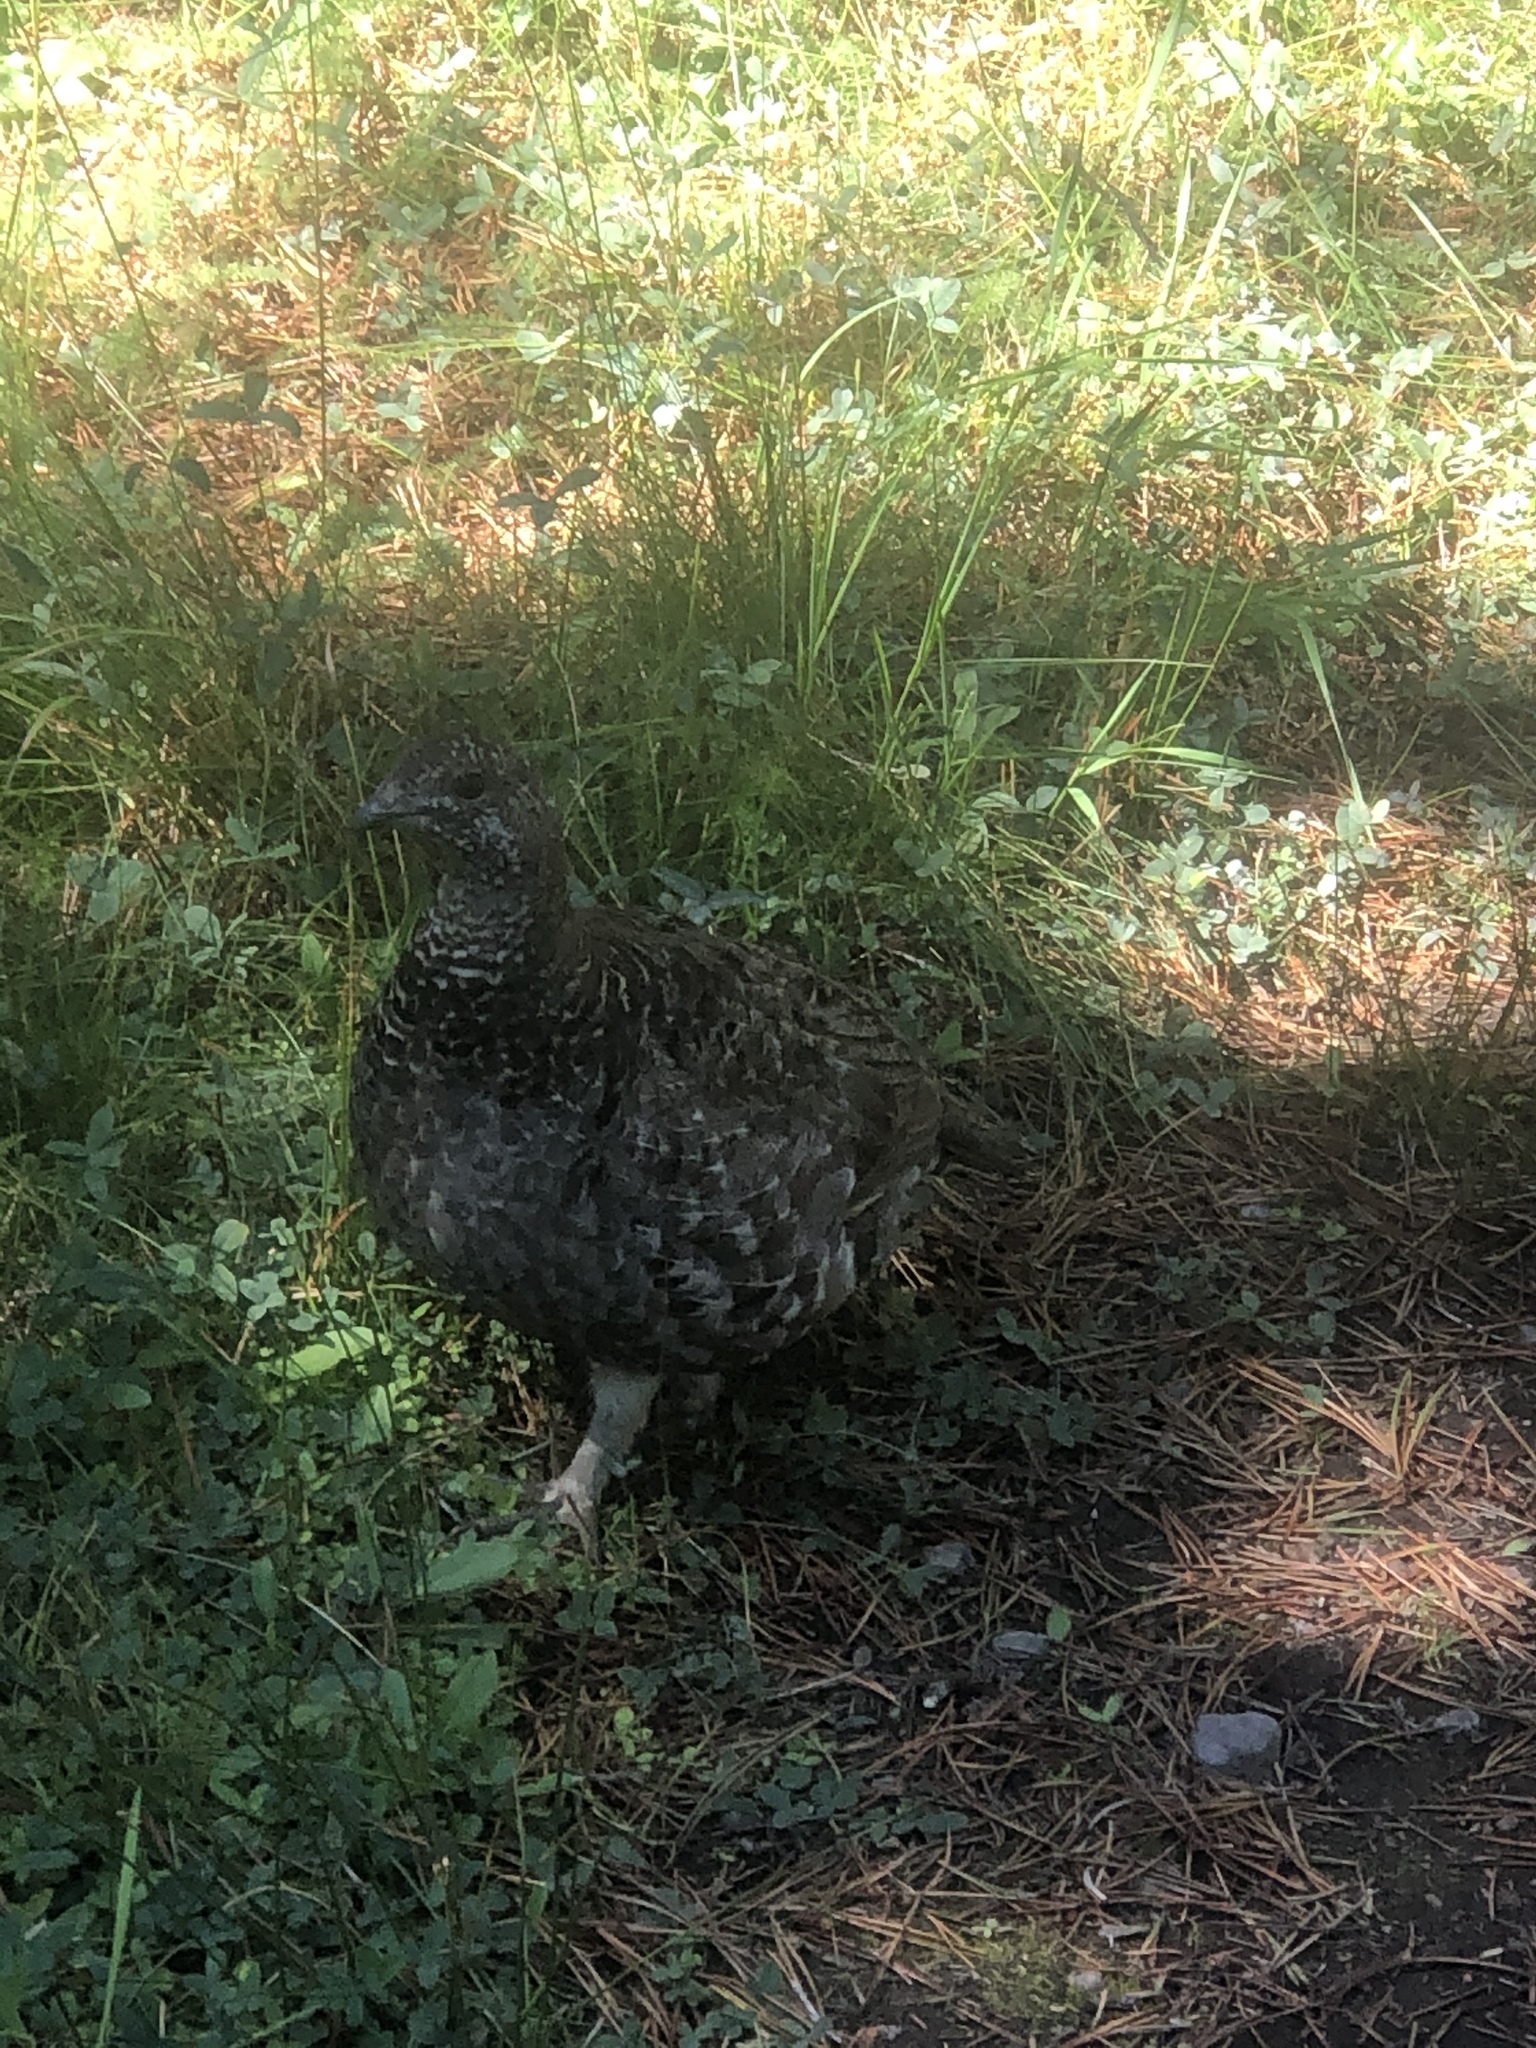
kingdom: Animalia
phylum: Chordata
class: Aves
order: Galliformes
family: Phasianidae
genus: Dendragapus
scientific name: Dendragapus fuliginosus
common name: Sooty grouse
